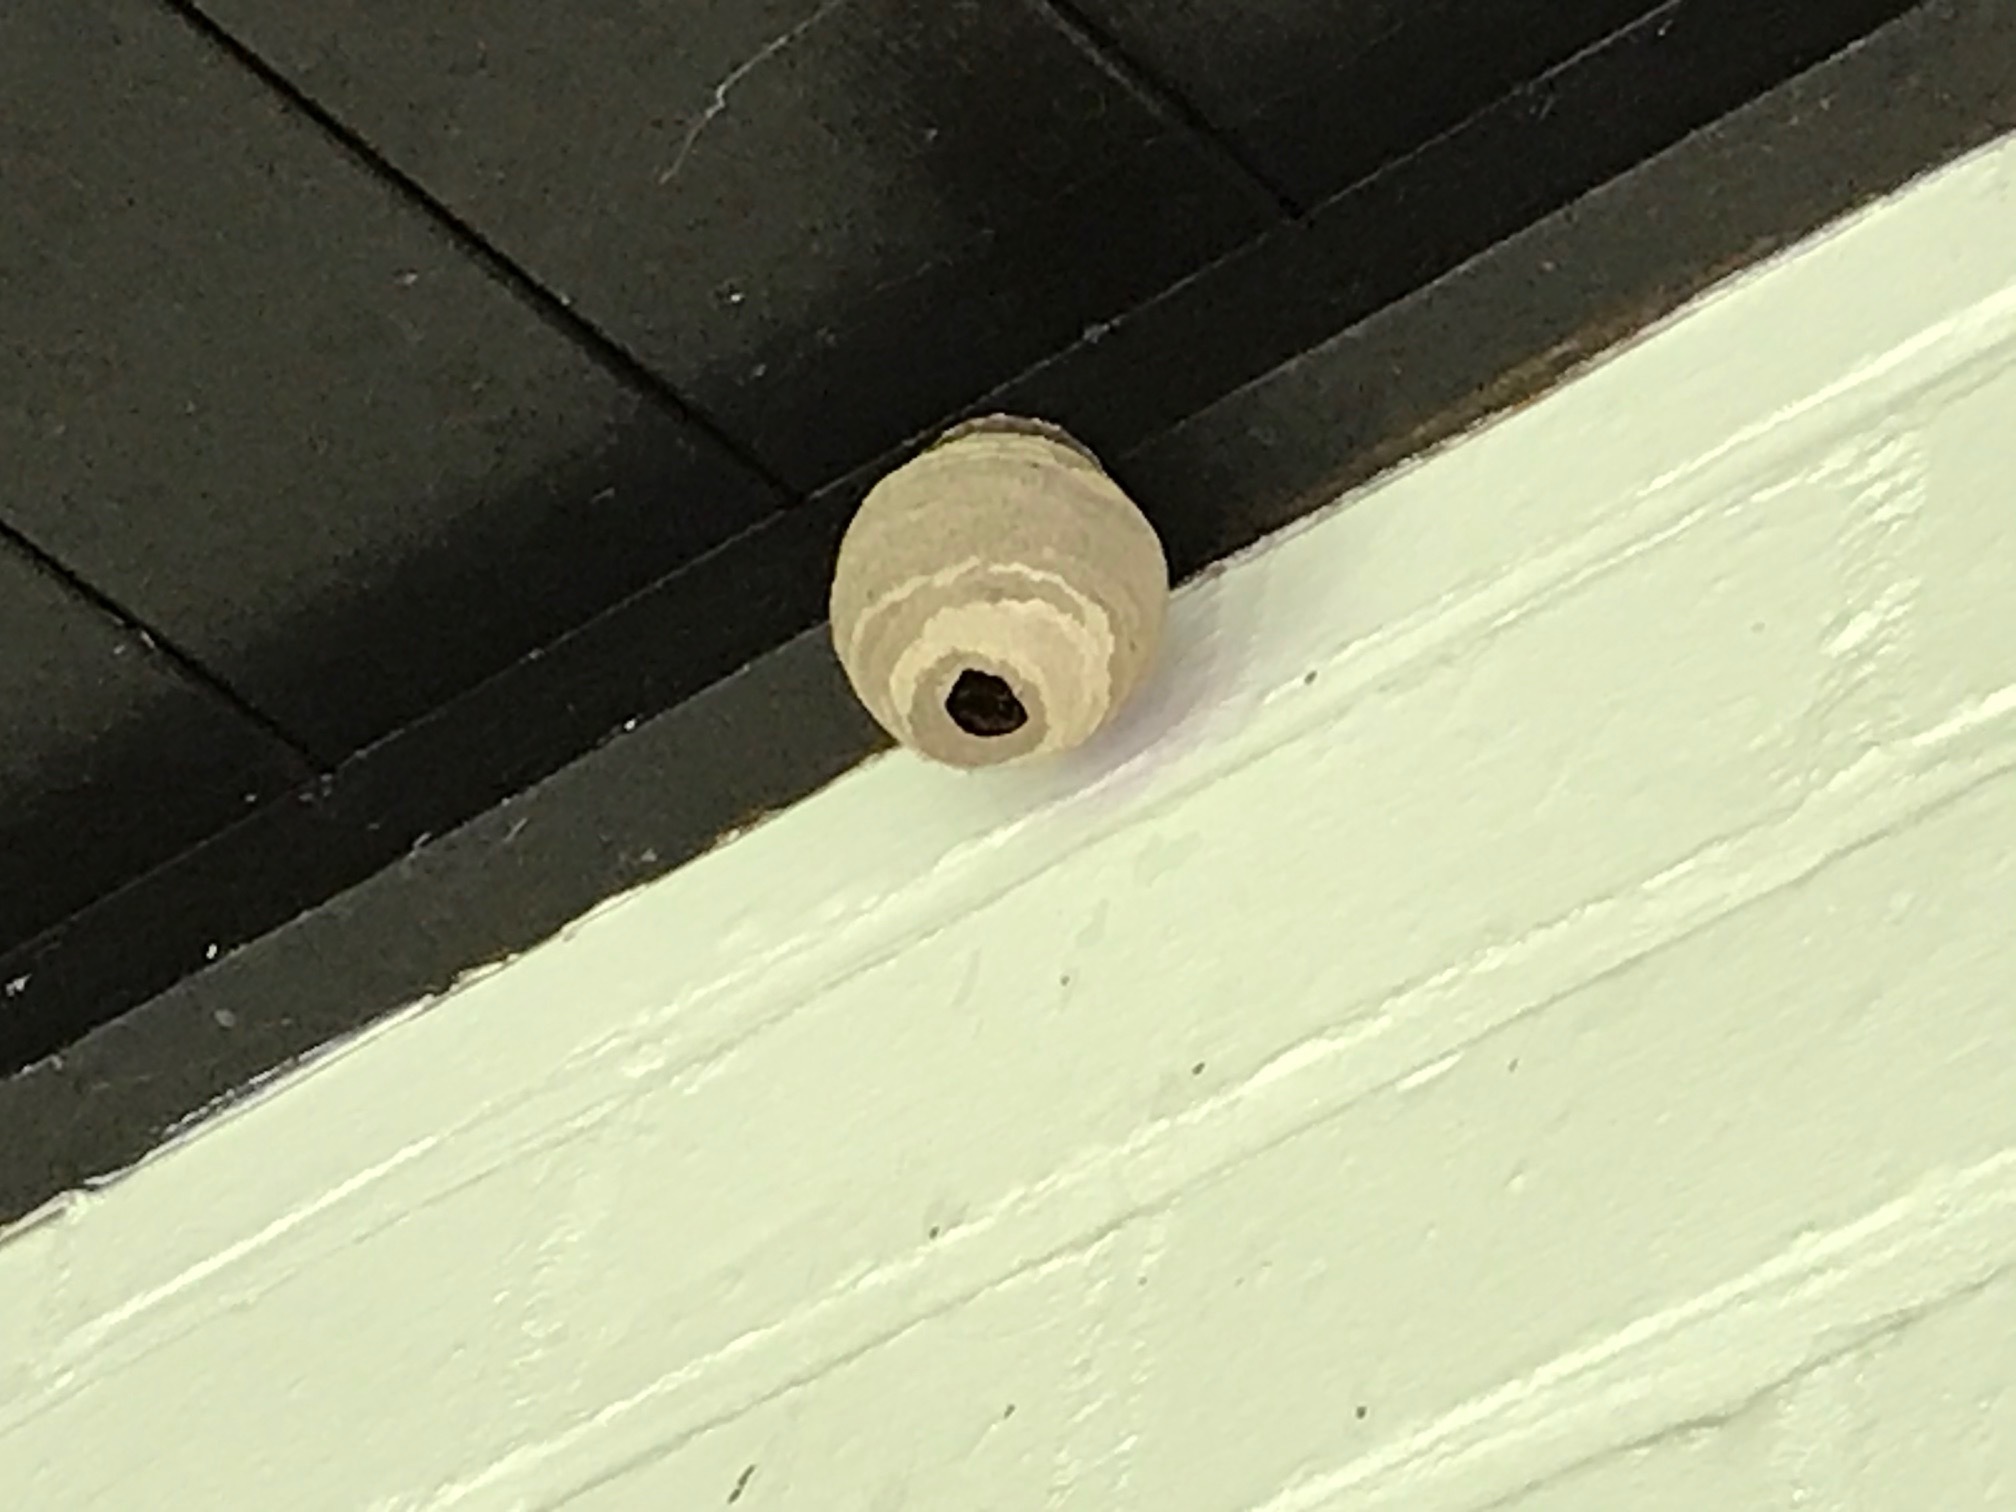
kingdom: Animalia
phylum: Arthropoda
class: Insecta
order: Hymenoptera
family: Vespidae
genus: Vespa
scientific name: Vespa velutina
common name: Asian hornet
